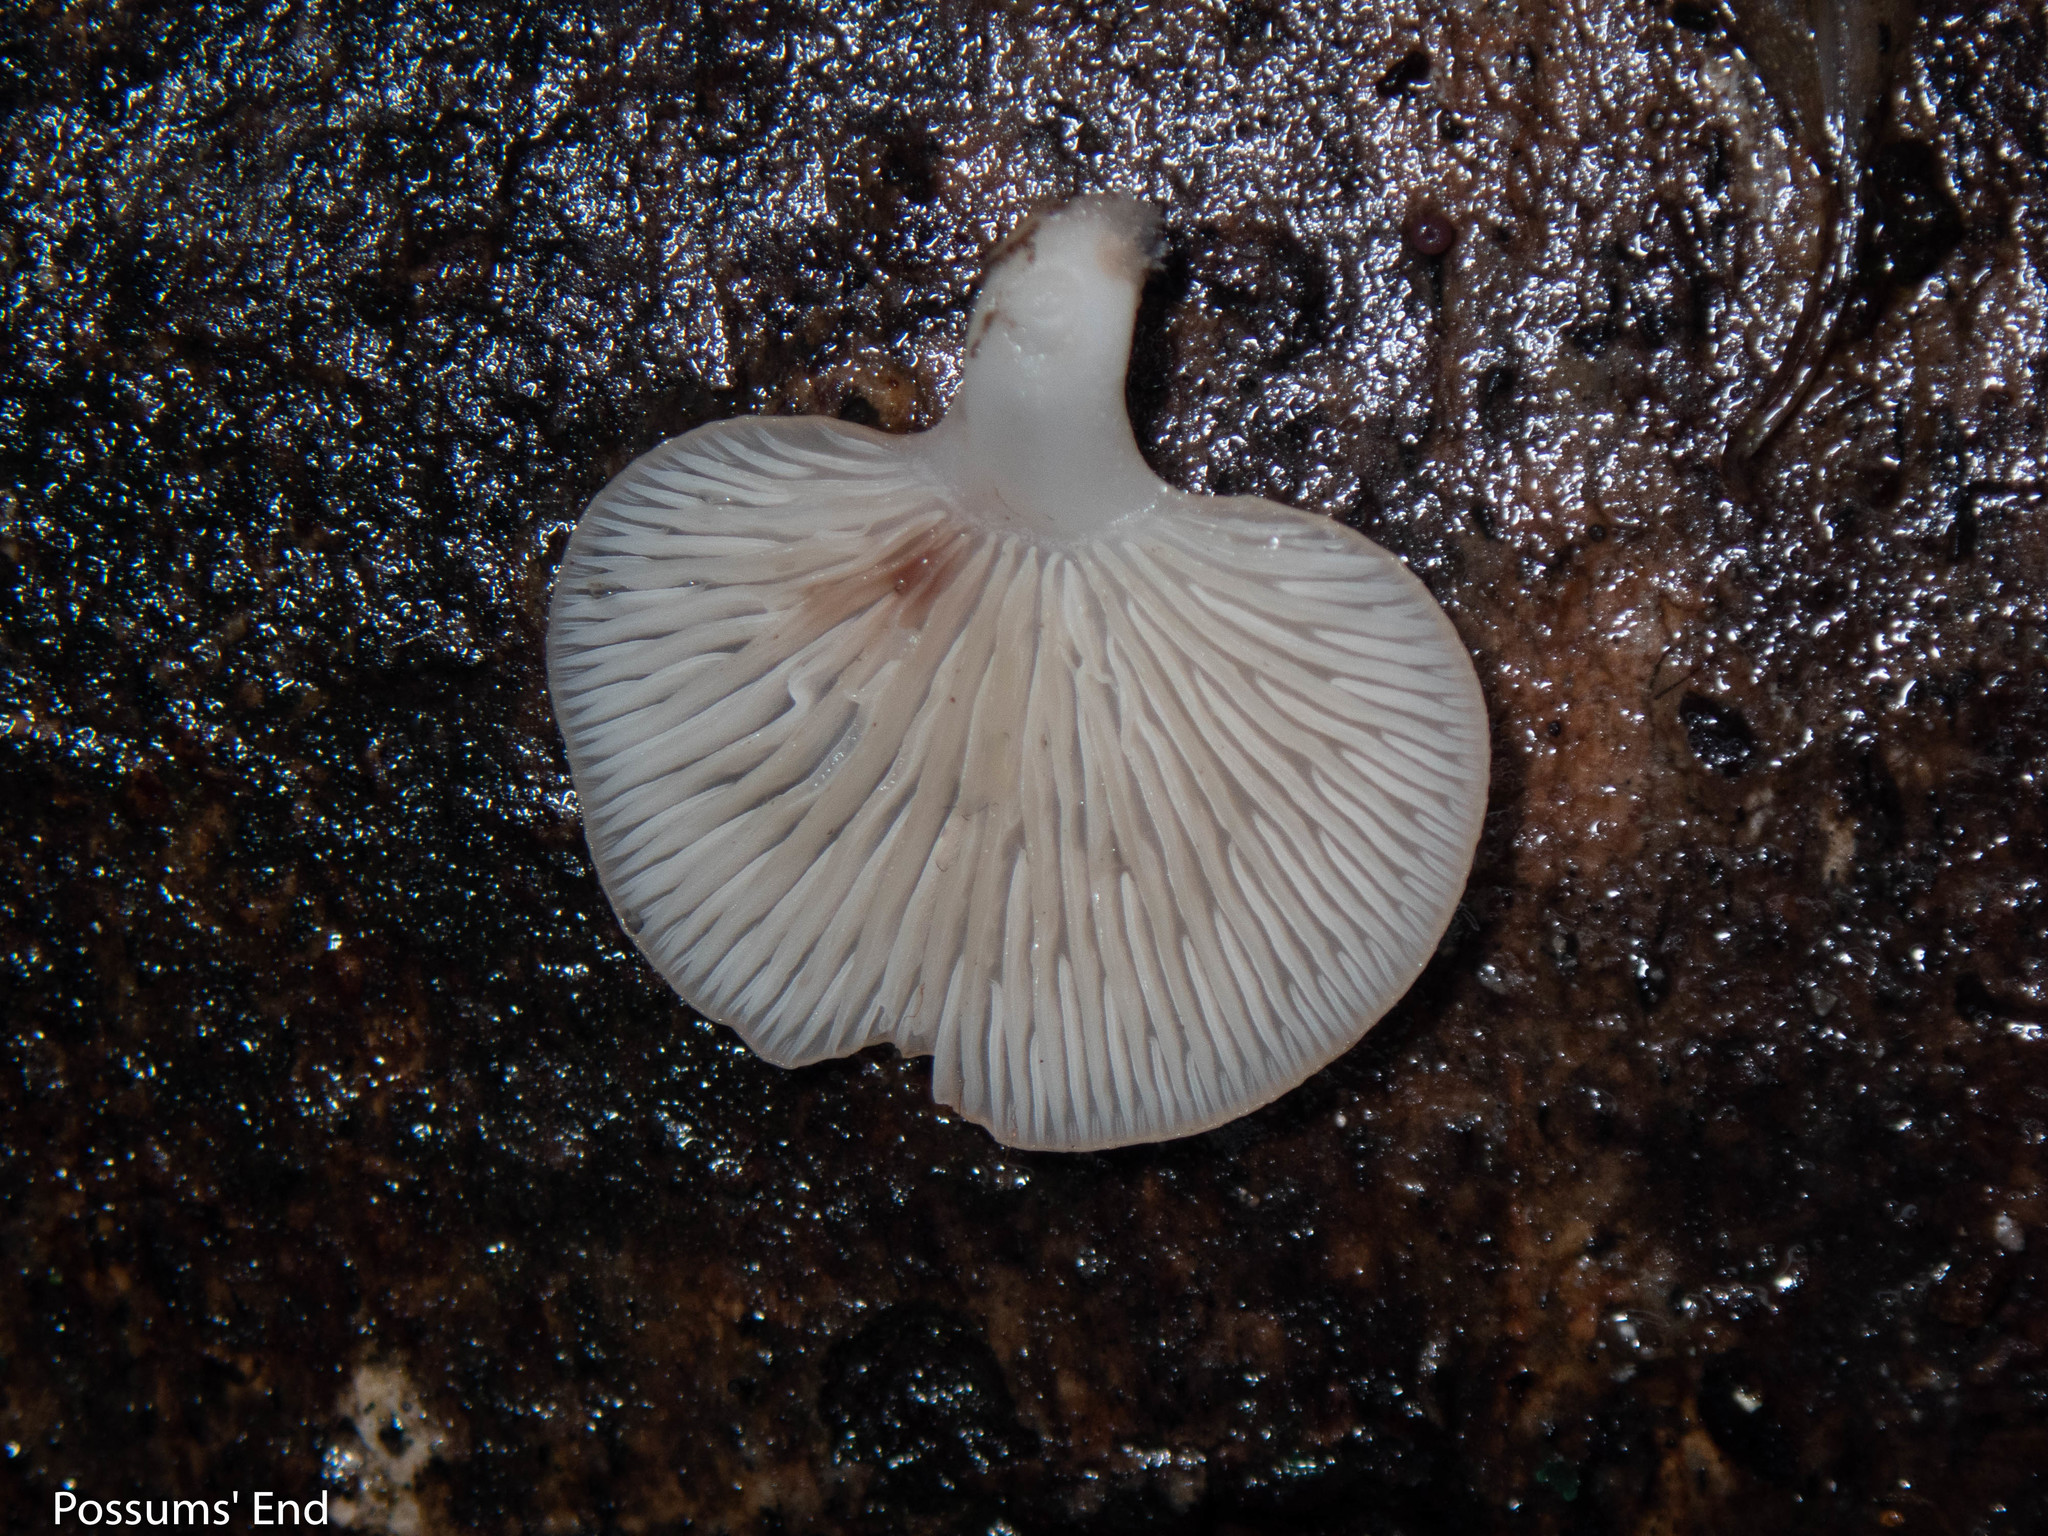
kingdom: Fungi
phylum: Basidiomycota
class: Agaricomycetes
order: Agaricales
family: Mycenaceae
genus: Panellus
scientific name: Panellus longinquus
